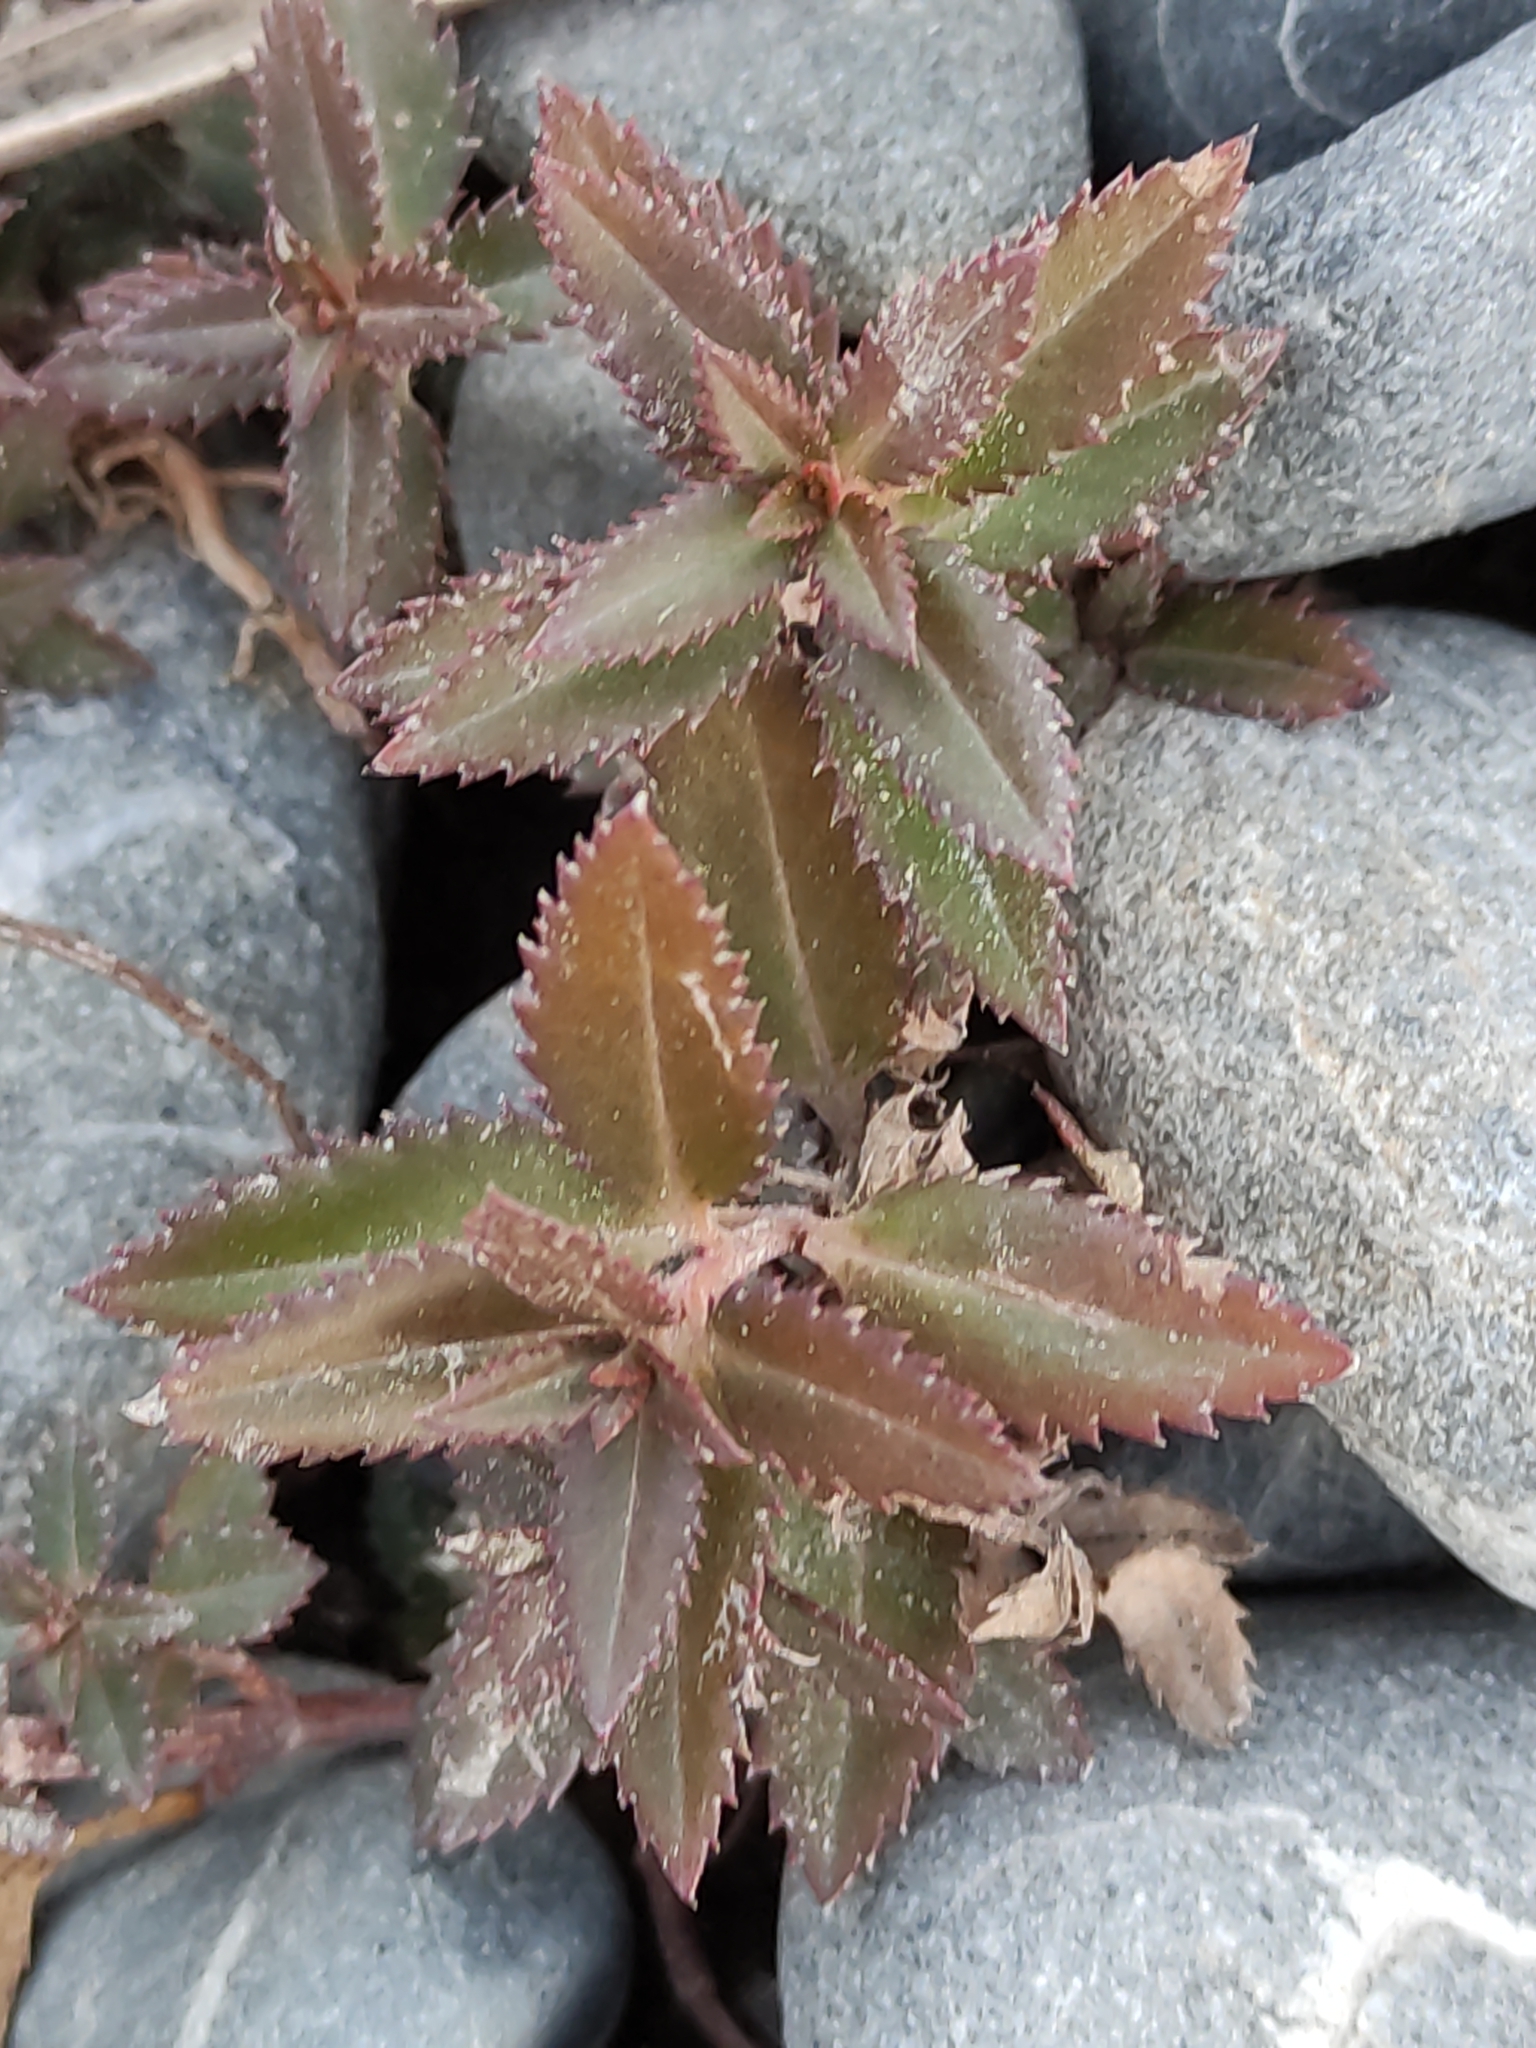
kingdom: Plantae
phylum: Tracheophyta
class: Magnoliopsida
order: Saxifragales
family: Haloragaceae
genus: Haloragis
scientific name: Haloragis erecta
